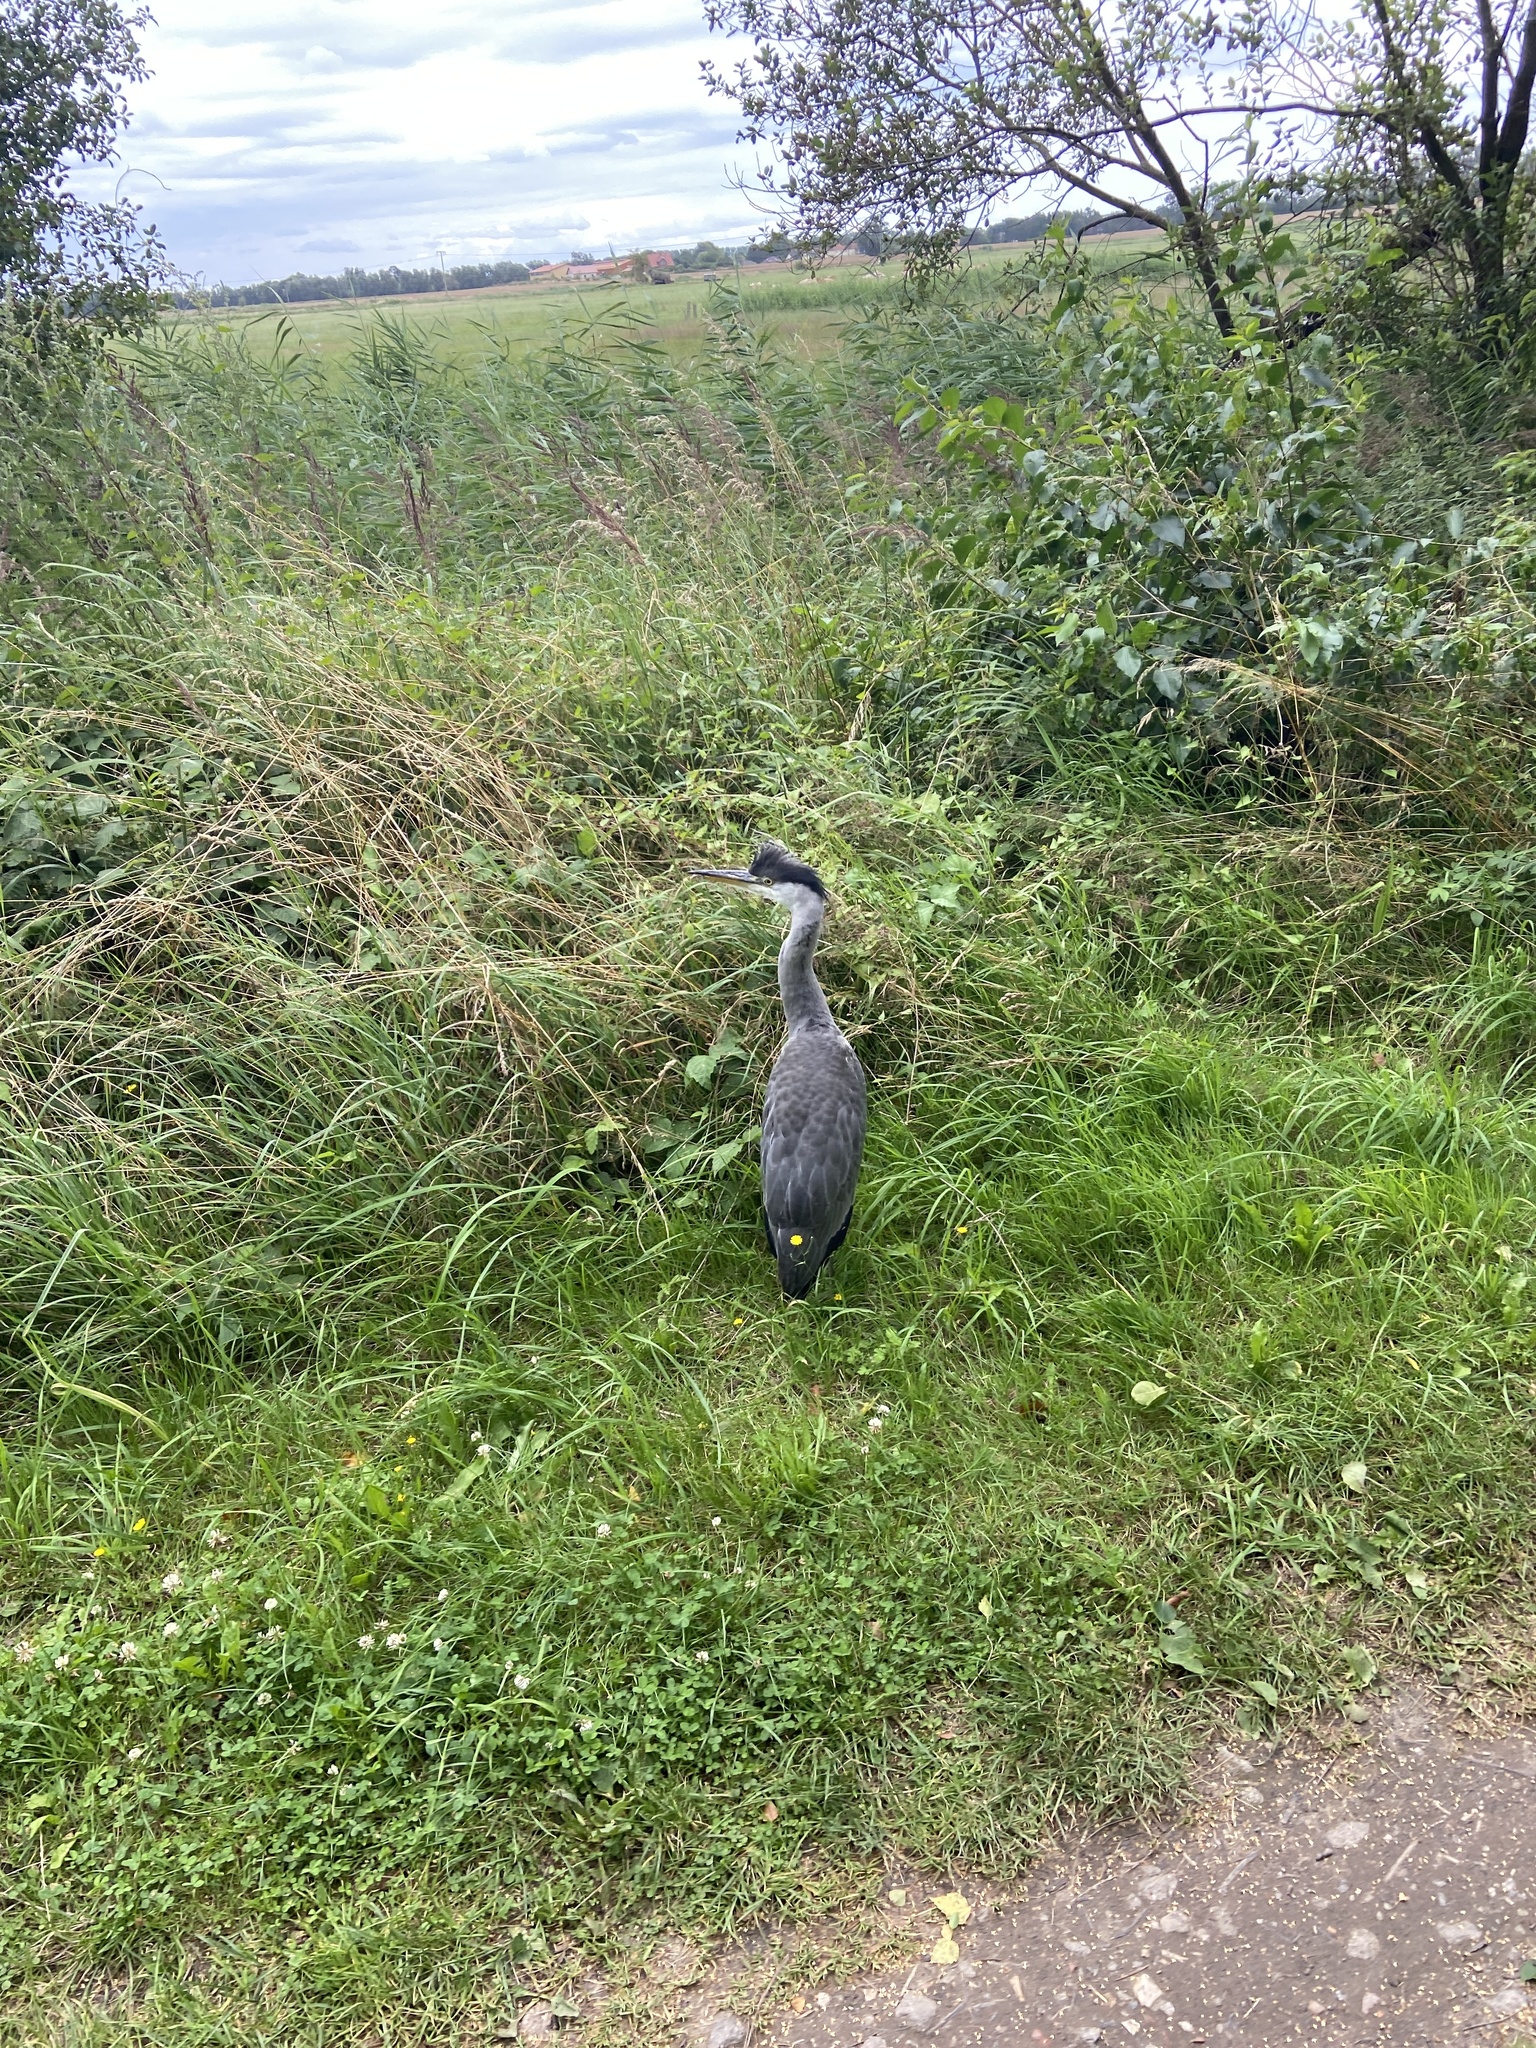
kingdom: Animalia
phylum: Chordata
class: Aves
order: Pelecaniformes
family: Ardeidae
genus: Ardea
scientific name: Ardea cinerea
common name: Grey heron
